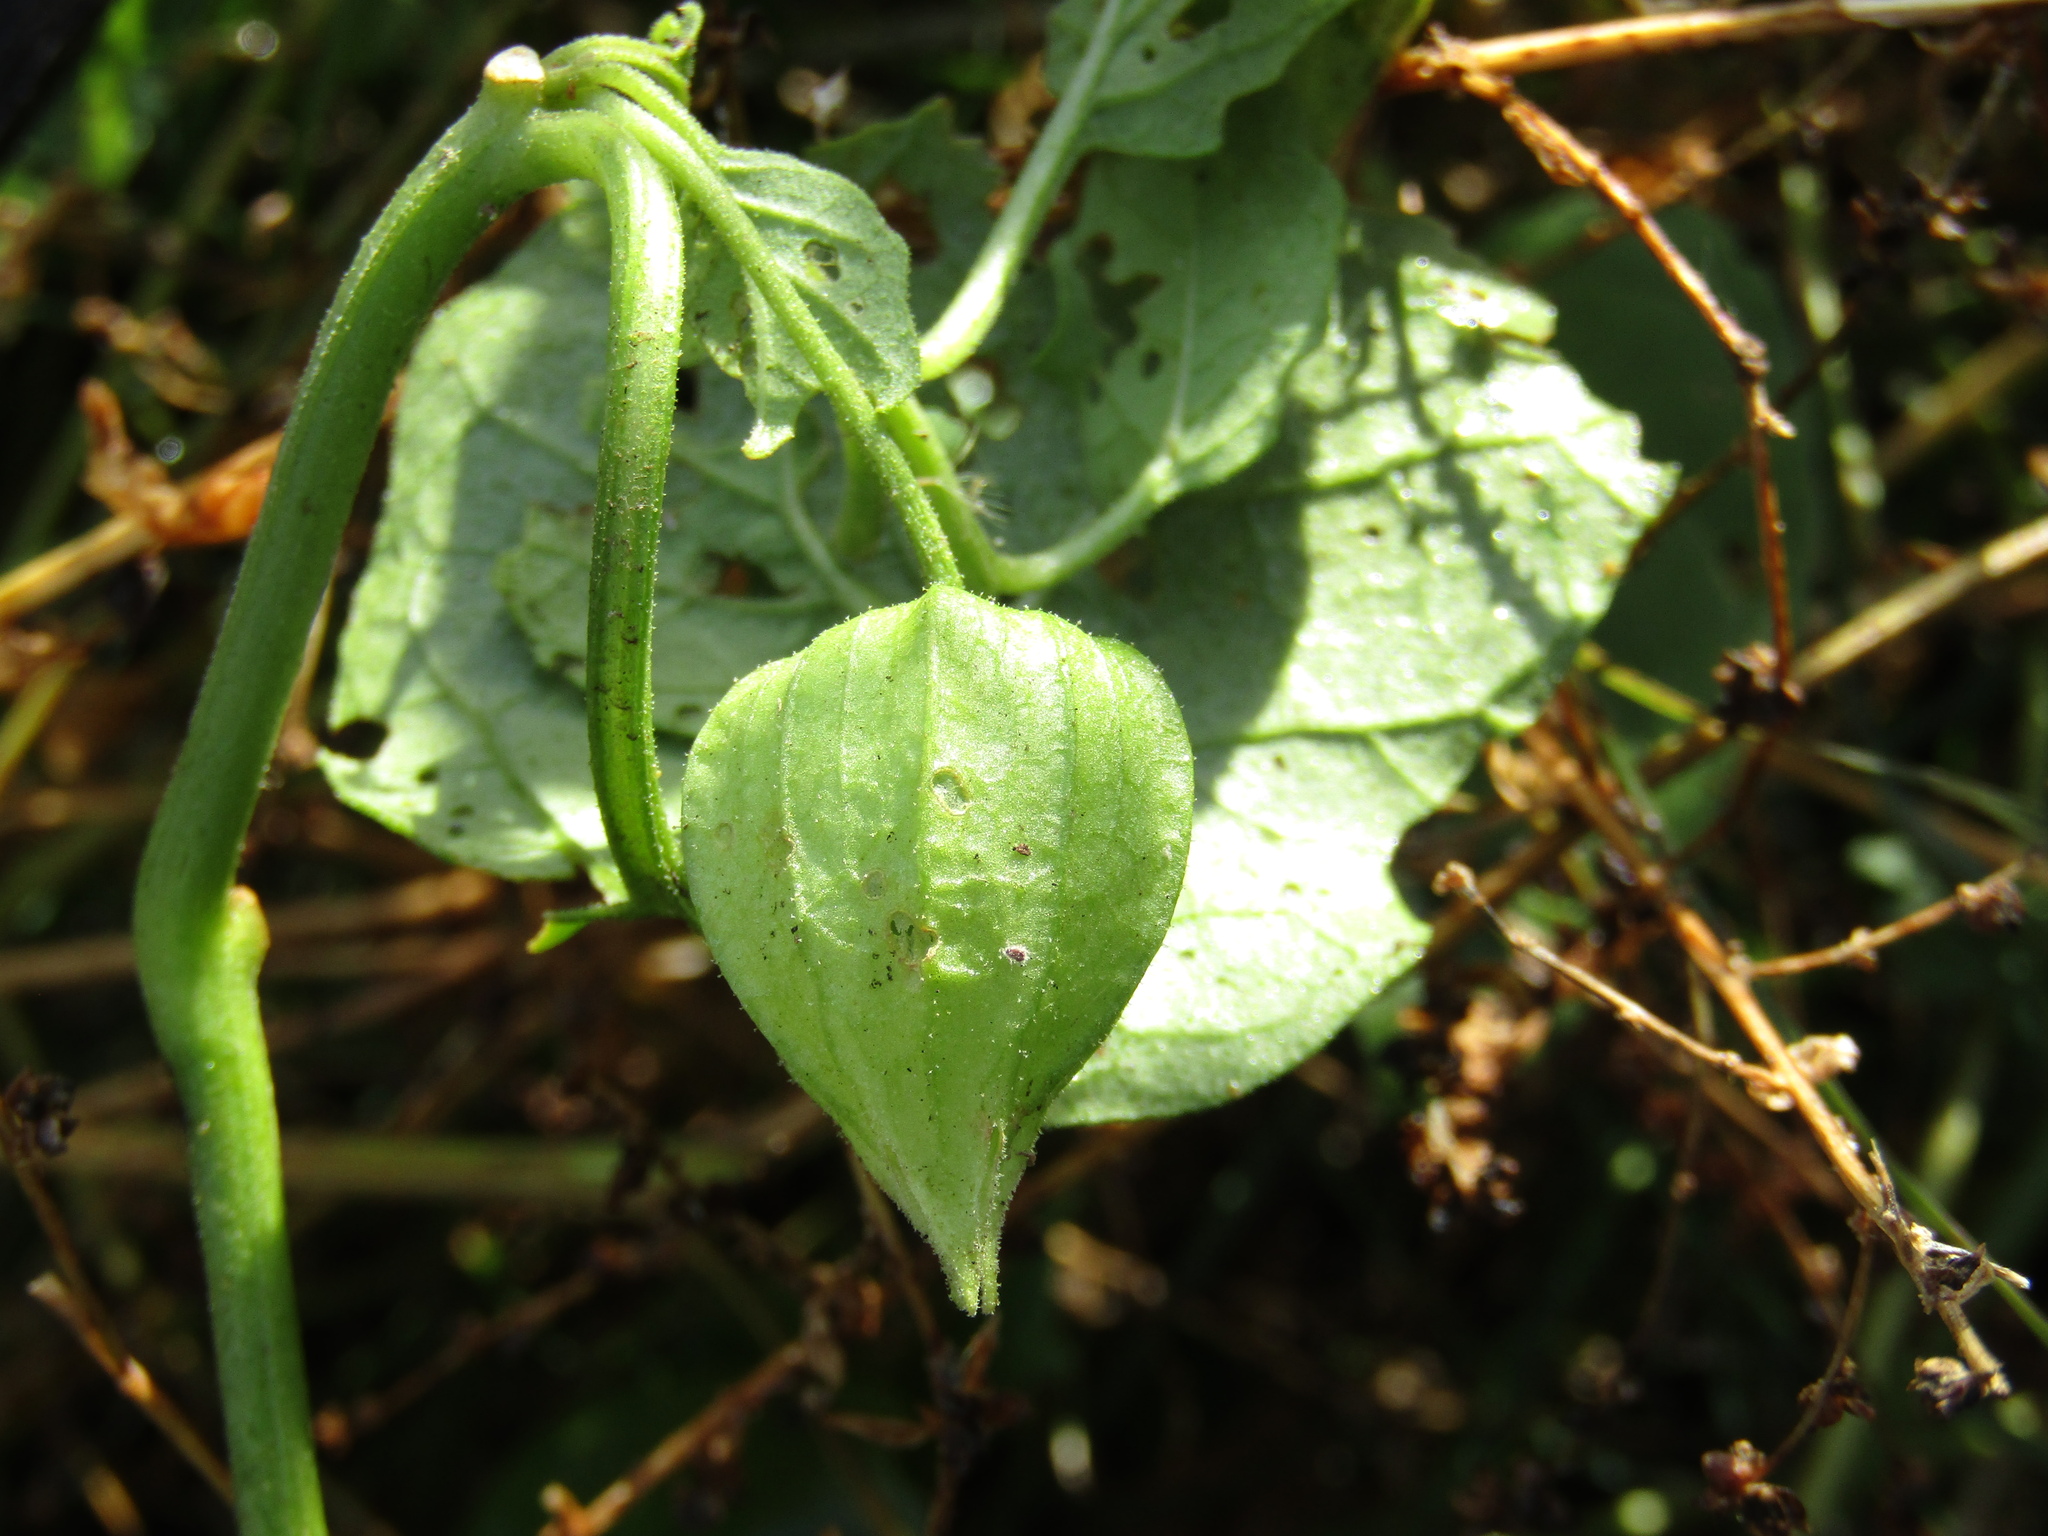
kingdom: Plantae
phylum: Tracheophyta
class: Magnoliopsida
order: Solanales
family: Solanaceae
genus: Physalis
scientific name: Physalis viscosa
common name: Stellate ground-cherry
